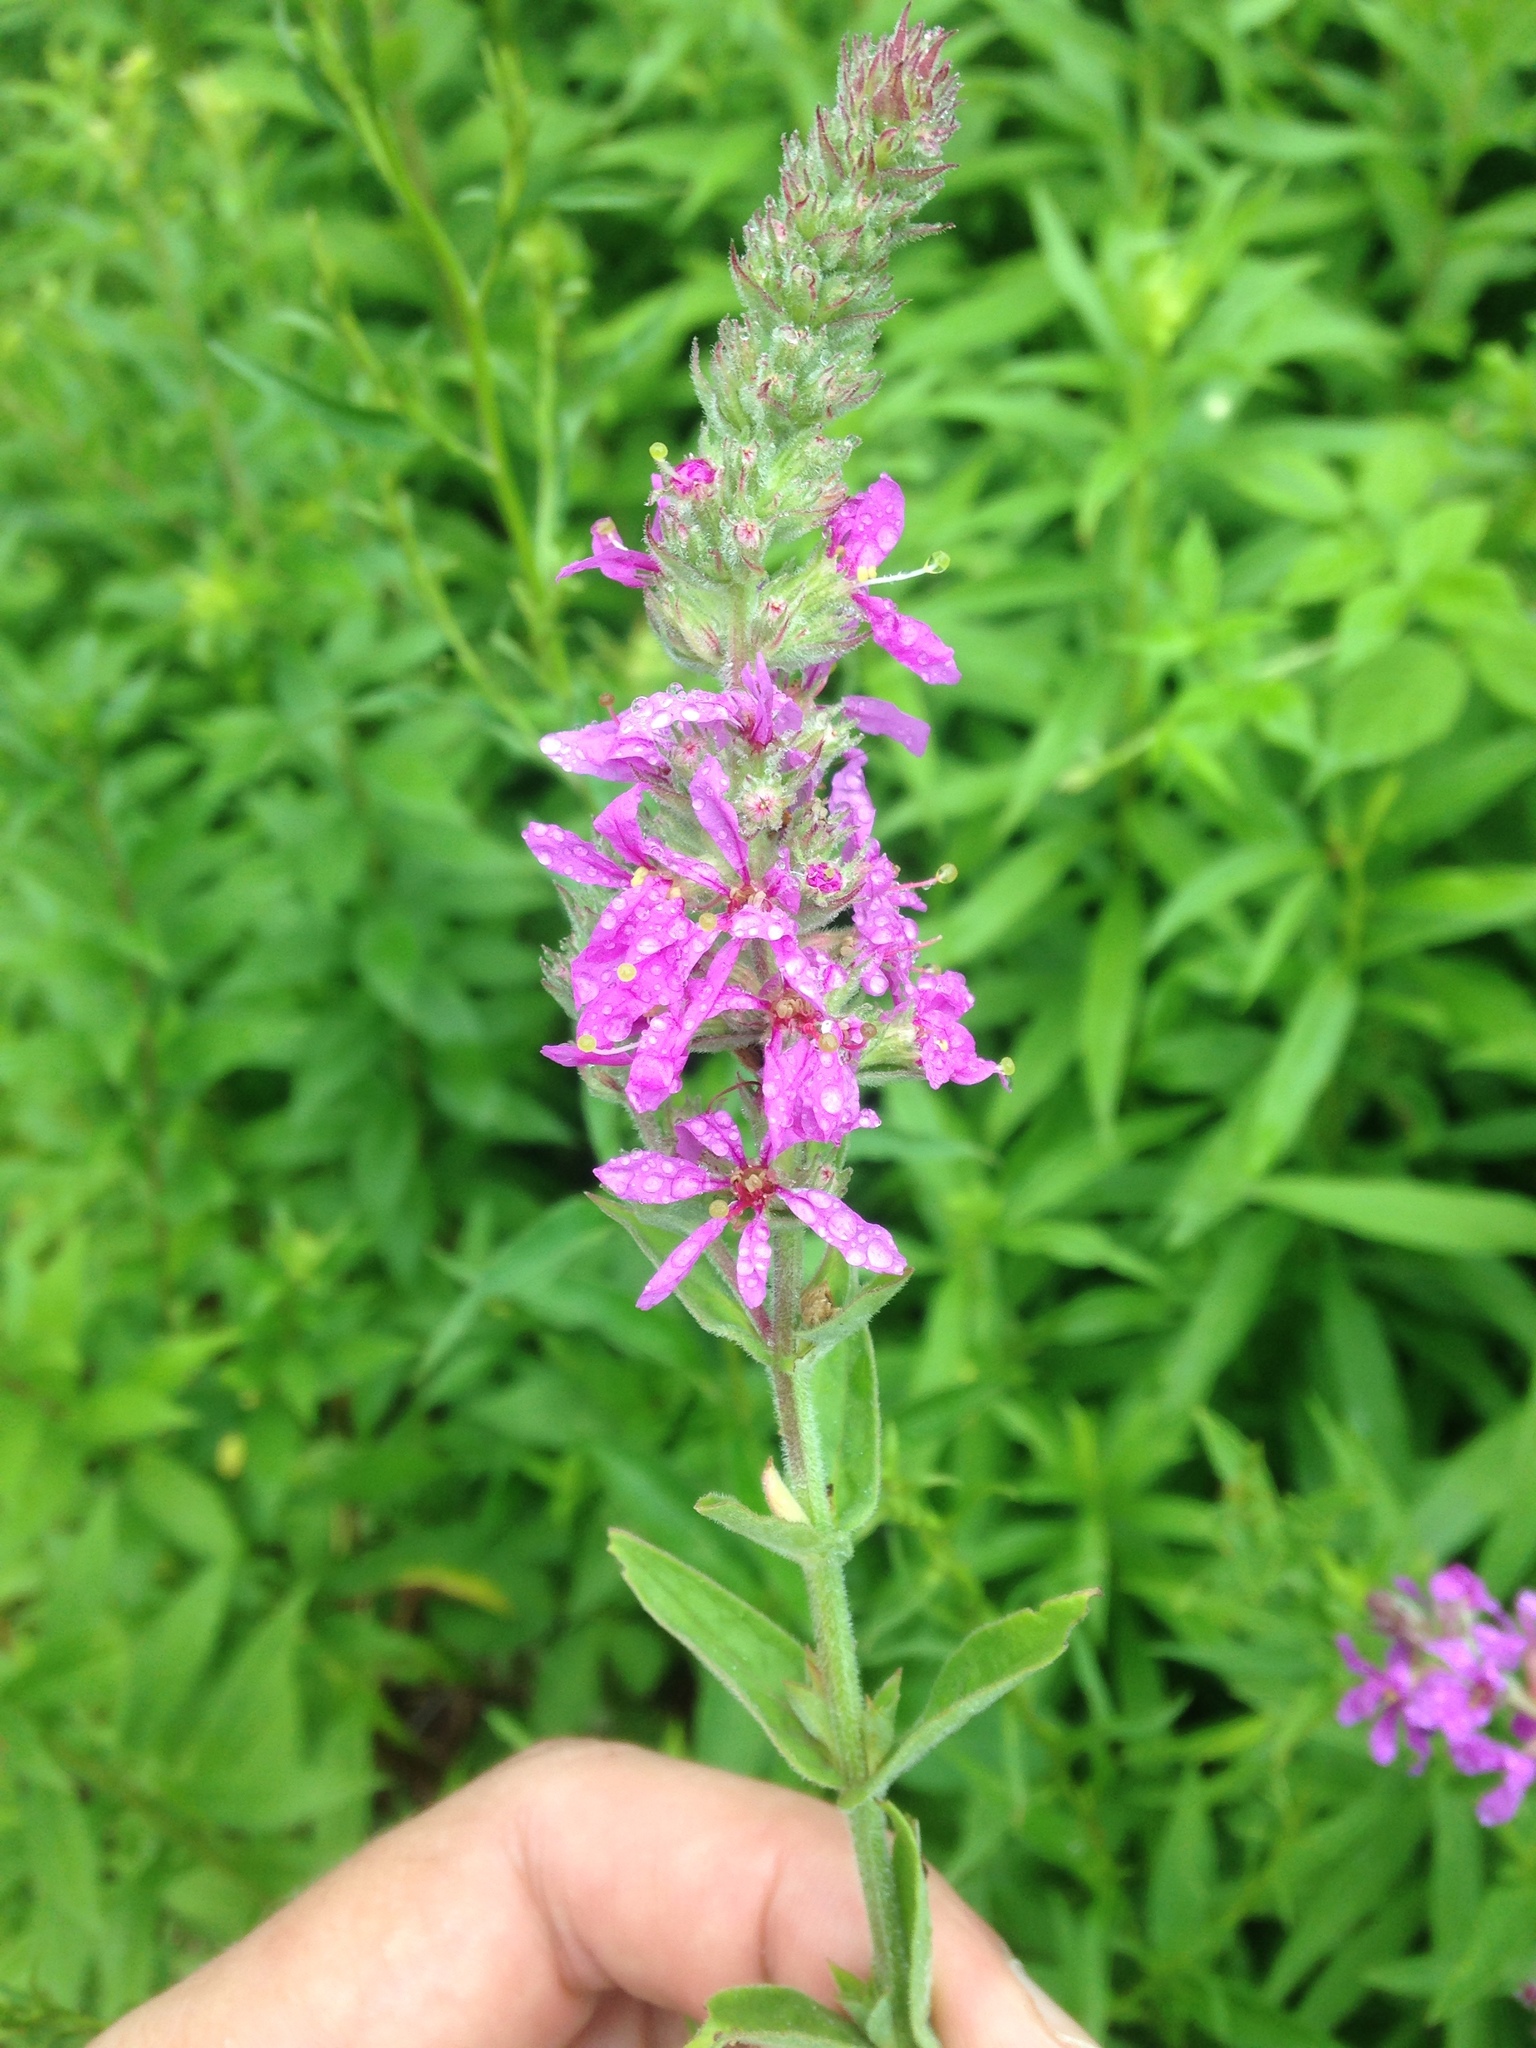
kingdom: Plantae
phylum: Tracheophyta
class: Magnoliopsida
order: Myrtales
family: Lythraceae
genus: Lythrum
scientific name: Lythrum salicaria
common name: Purple loosestrife
